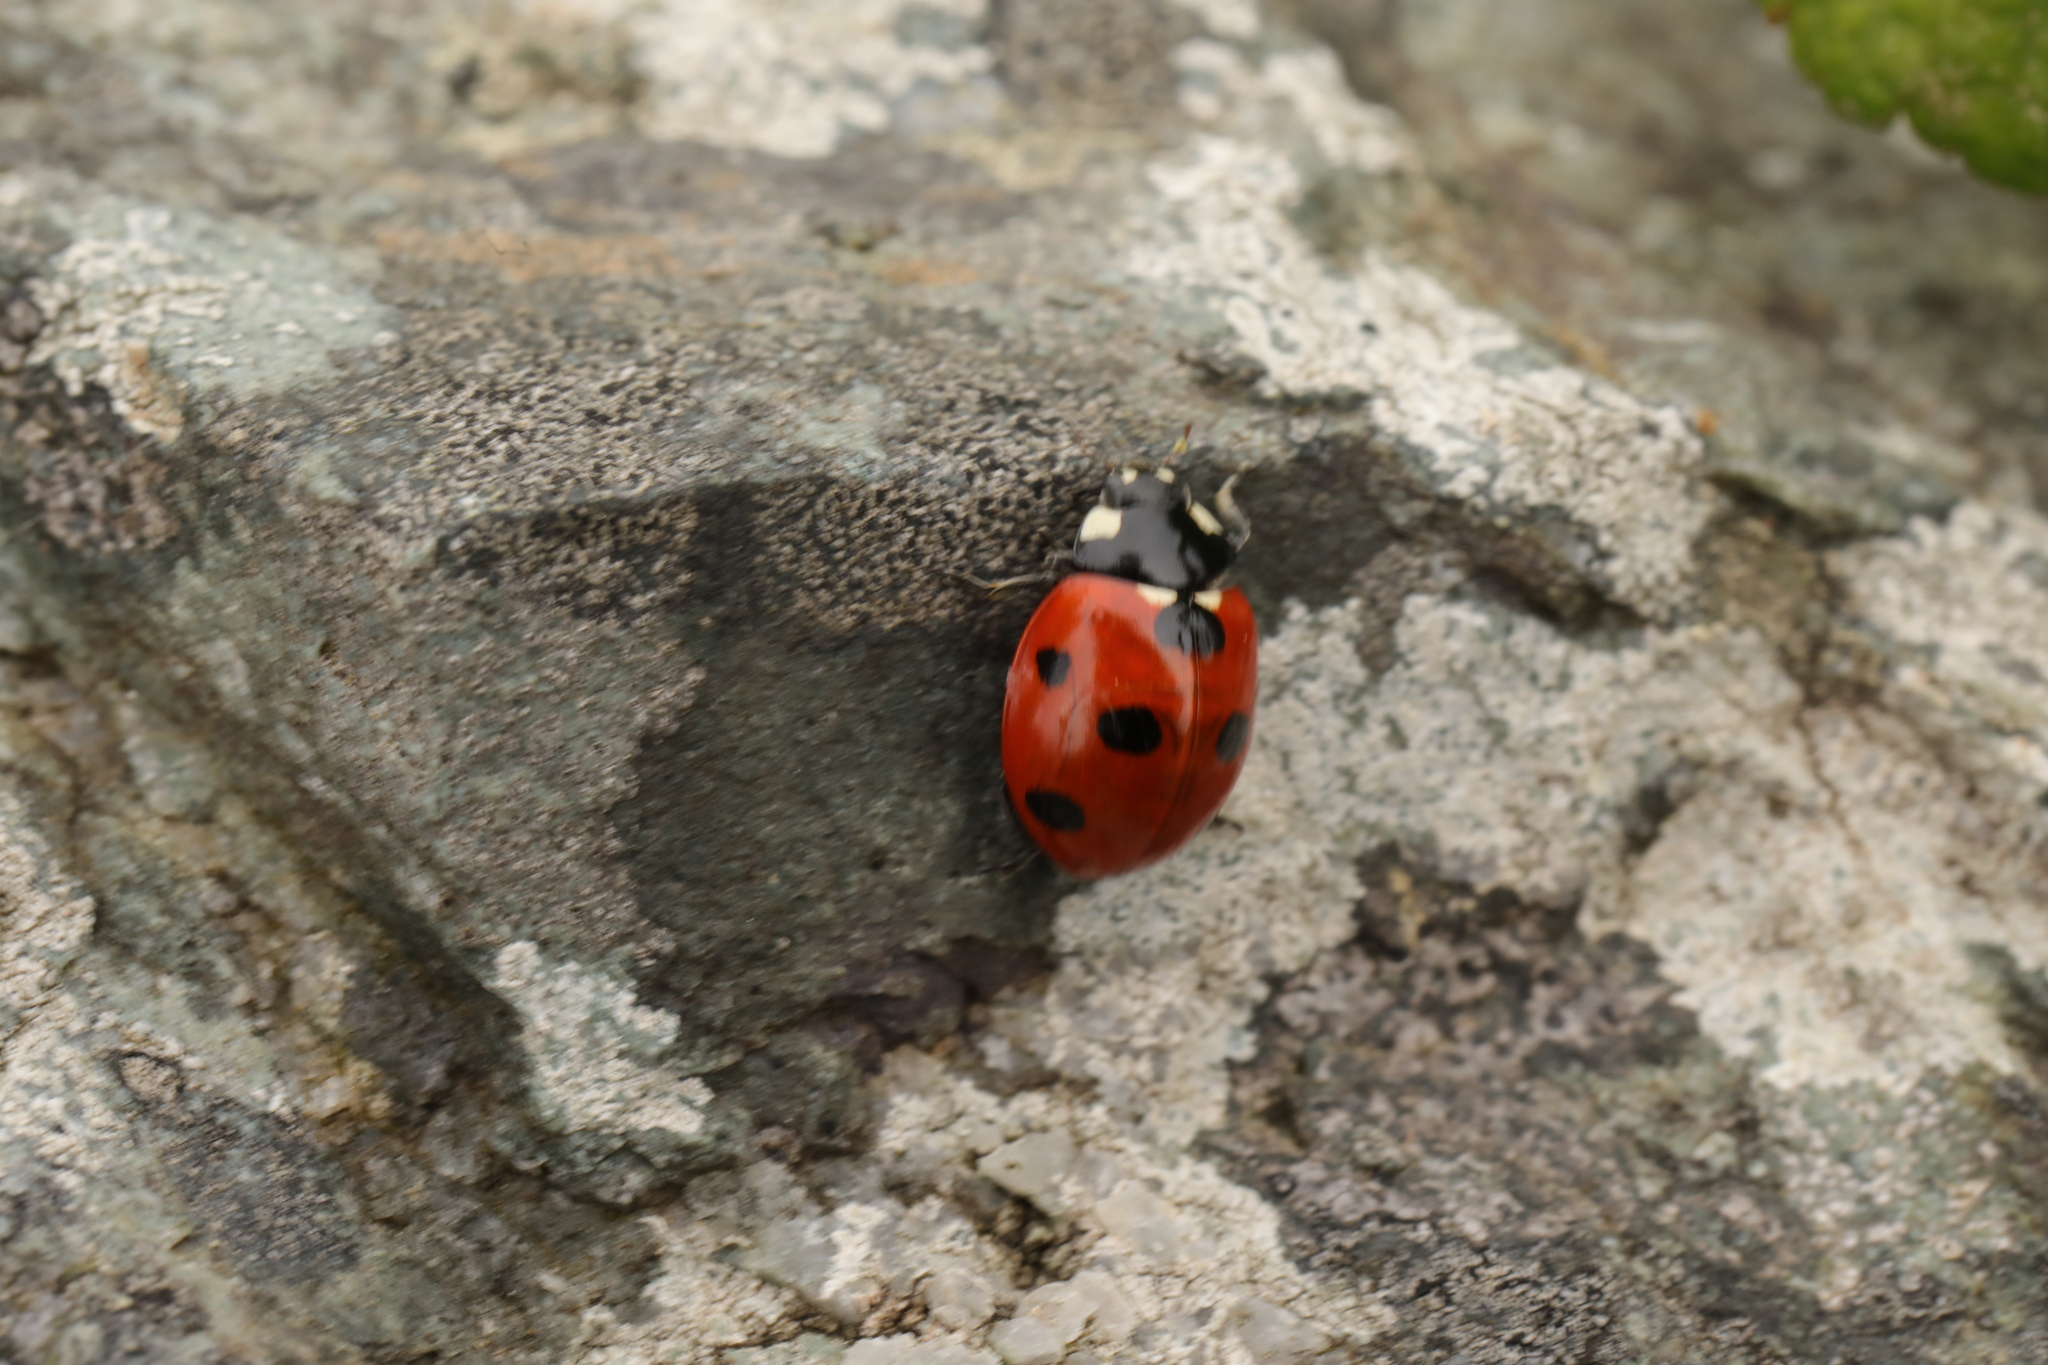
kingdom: Animalia
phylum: Arthropoda
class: Insecta
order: Coleoptera
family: Coccinellidae
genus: Coccinella
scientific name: Coccinella septempunctata
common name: Sevenspotted lady beetle
